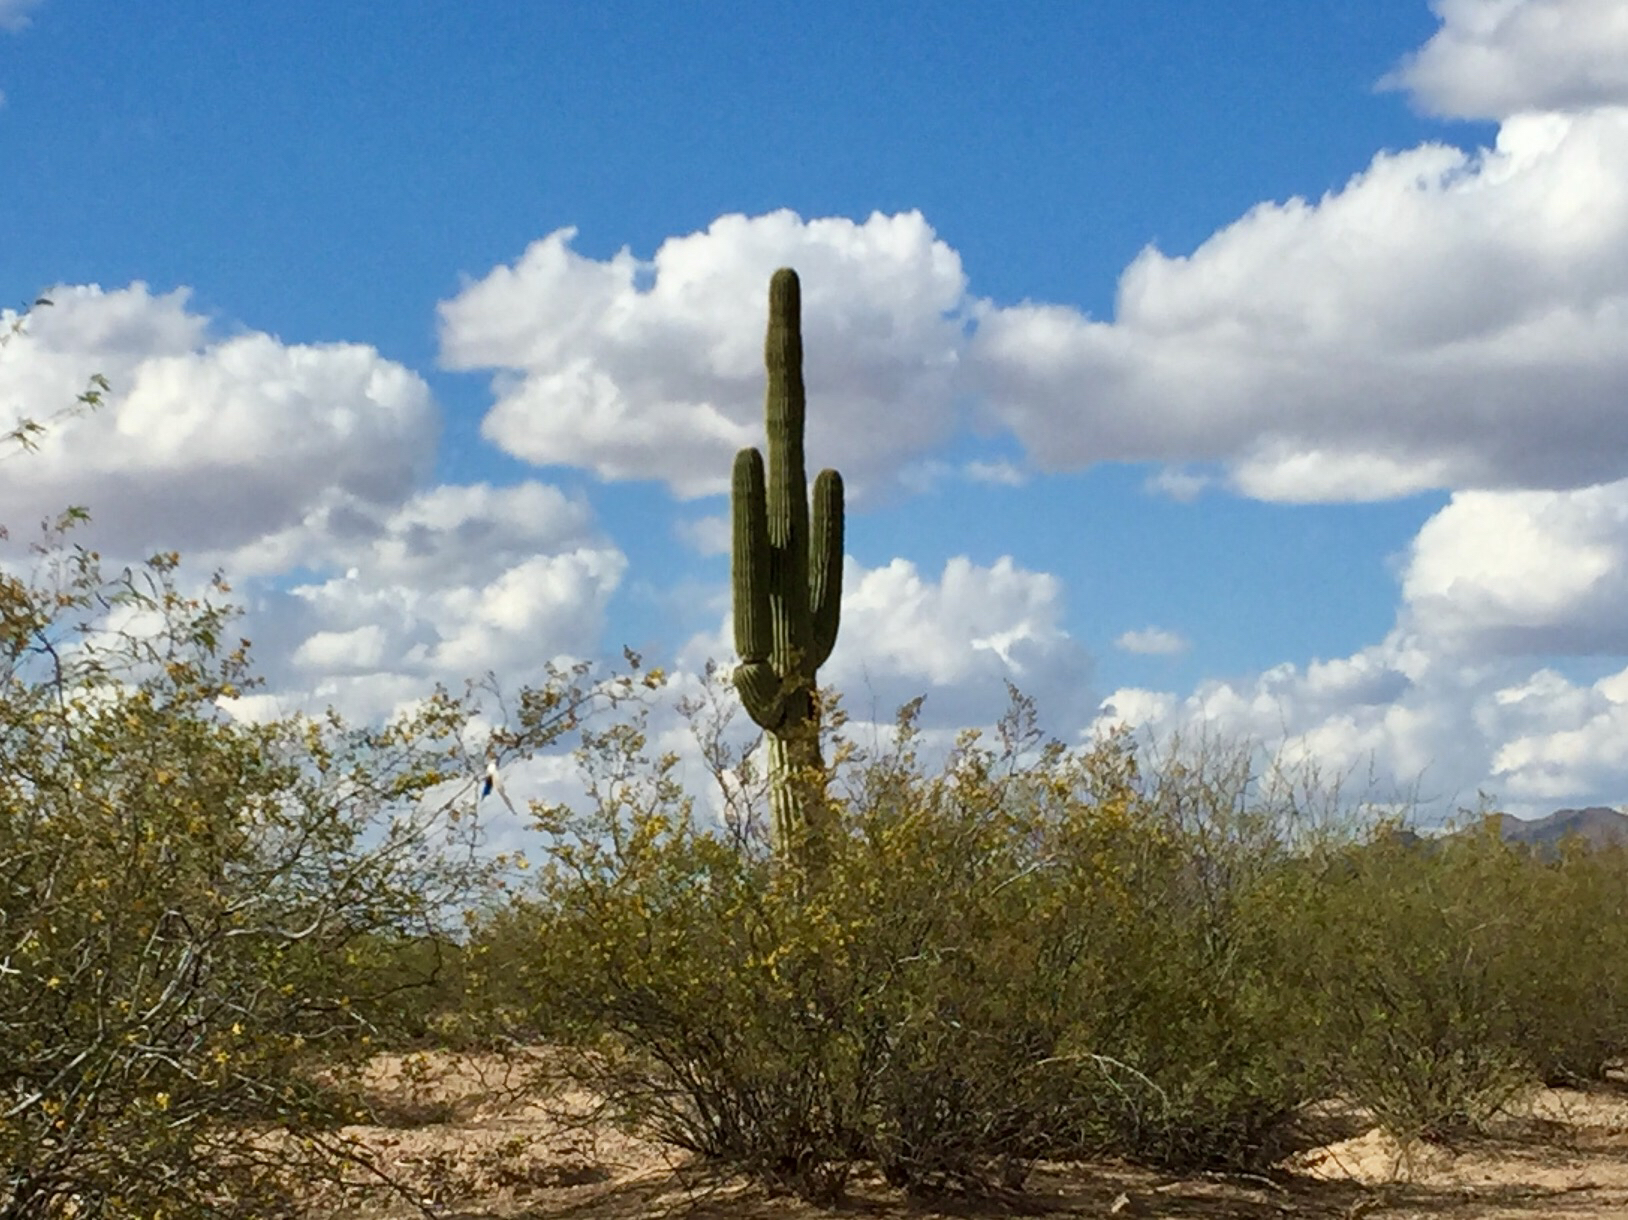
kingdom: Plantae
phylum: Tracheophyta
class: Magnoliopsida
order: Caryophyllales
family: Cactaceae
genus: Carnegiea
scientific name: Carnegiea gigantea
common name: Saguaro
